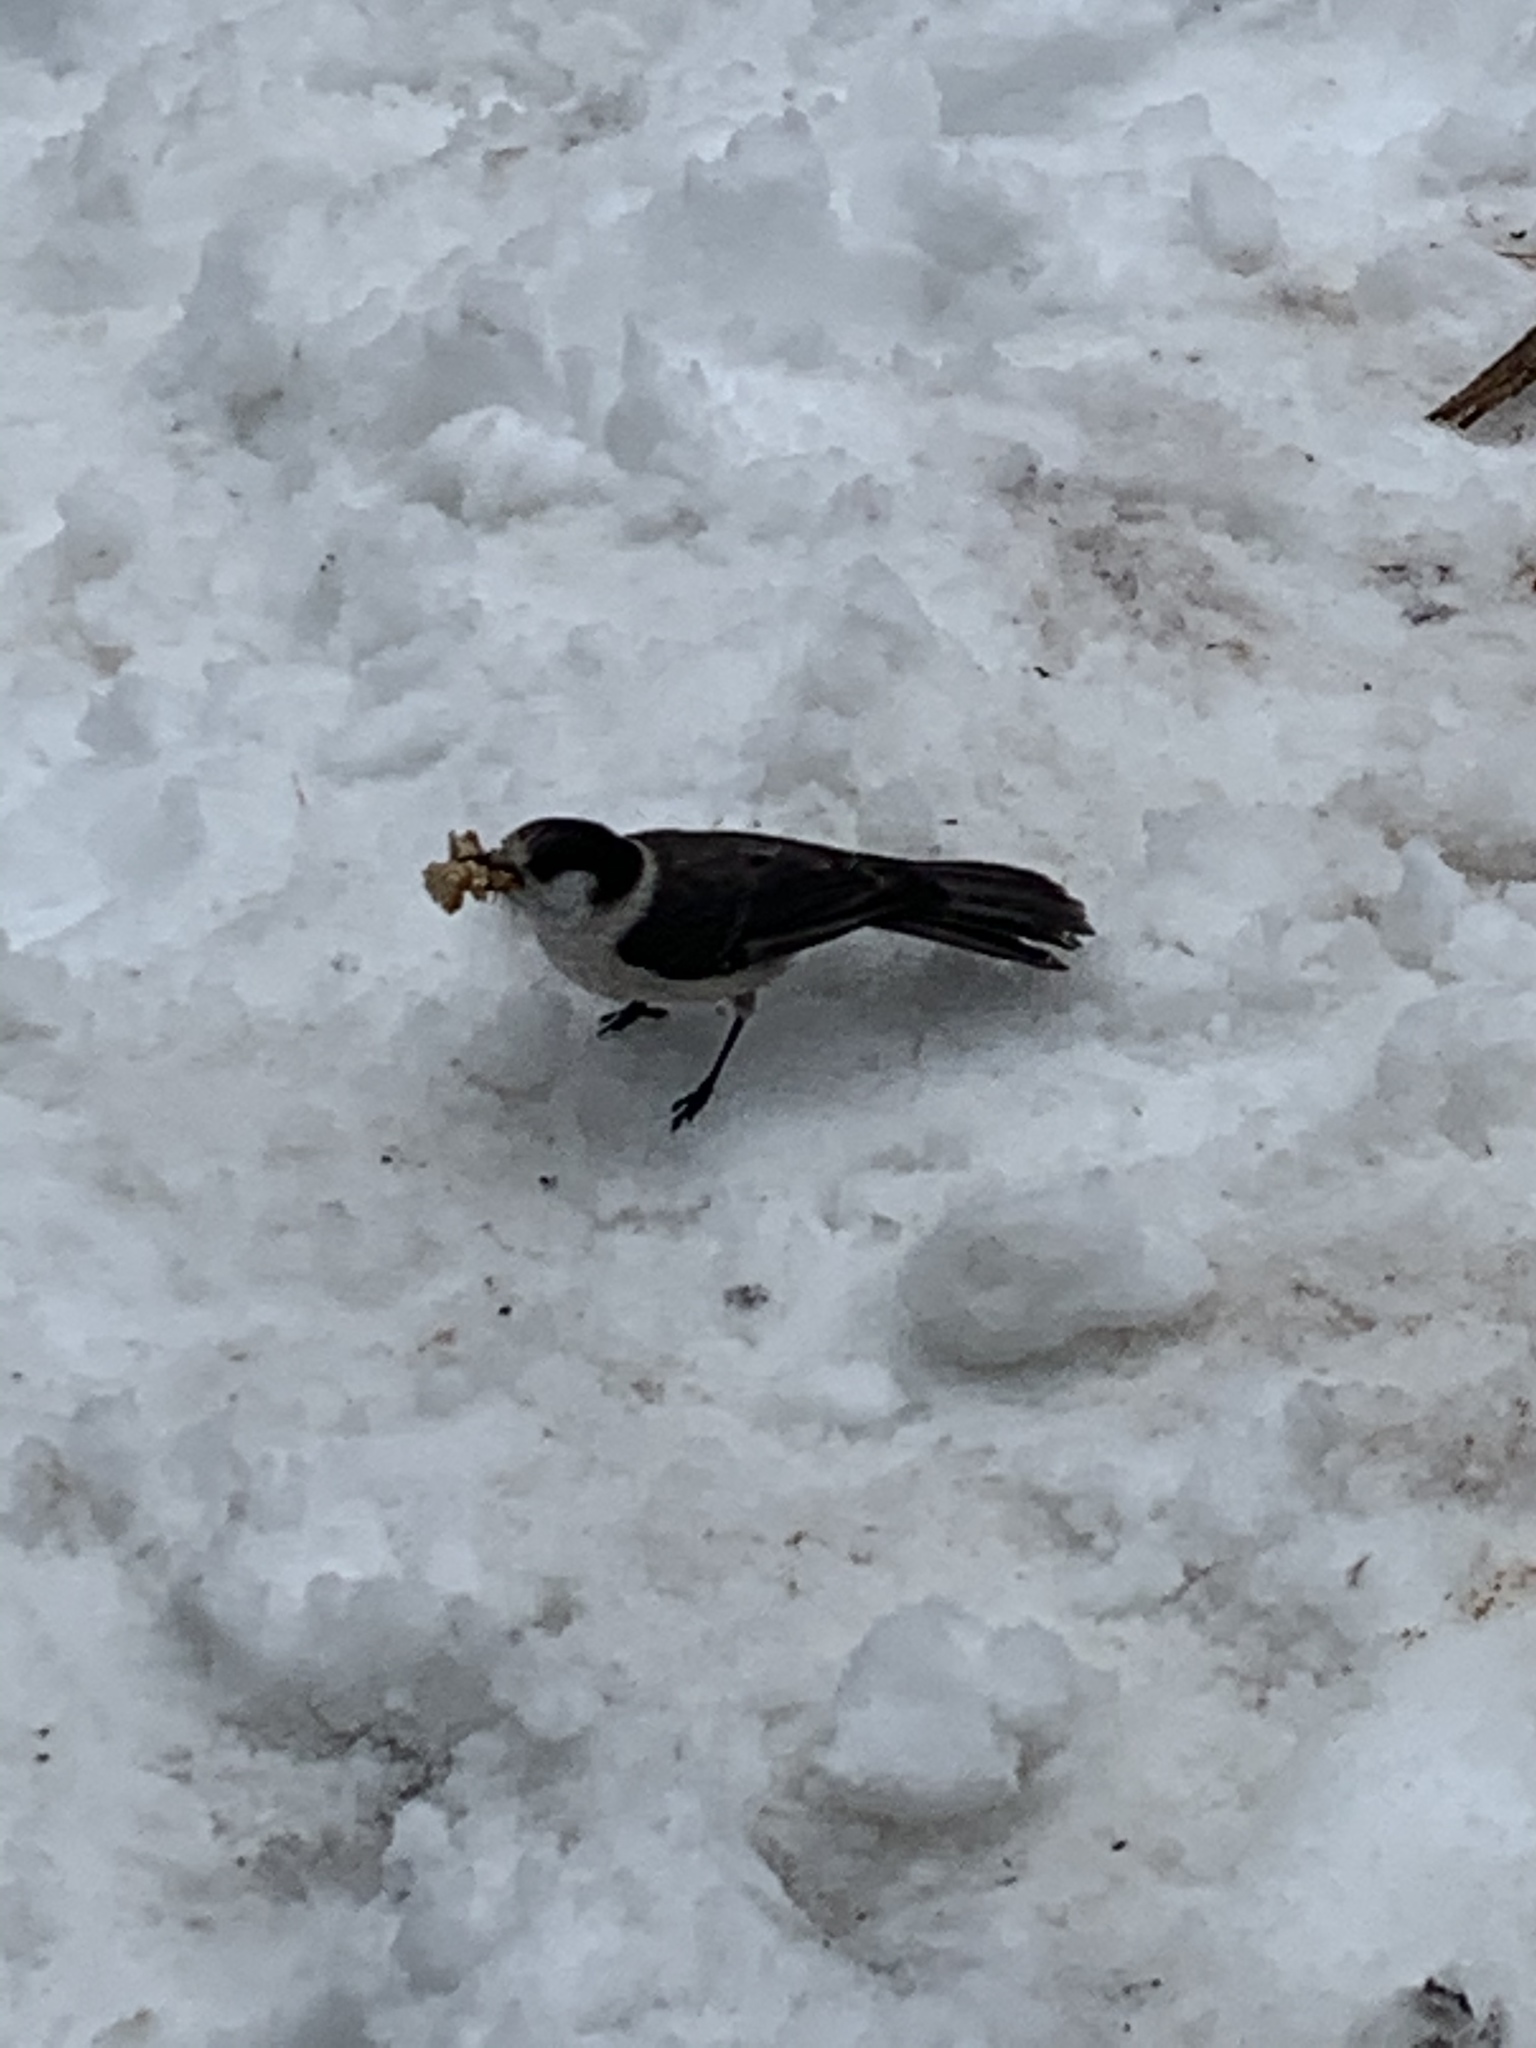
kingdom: Animalia
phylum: Chordata
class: Aves
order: Passeriformes
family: Corvidae
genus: Perisoreus
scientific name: Perisoreus canadensis
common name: Gray jay
